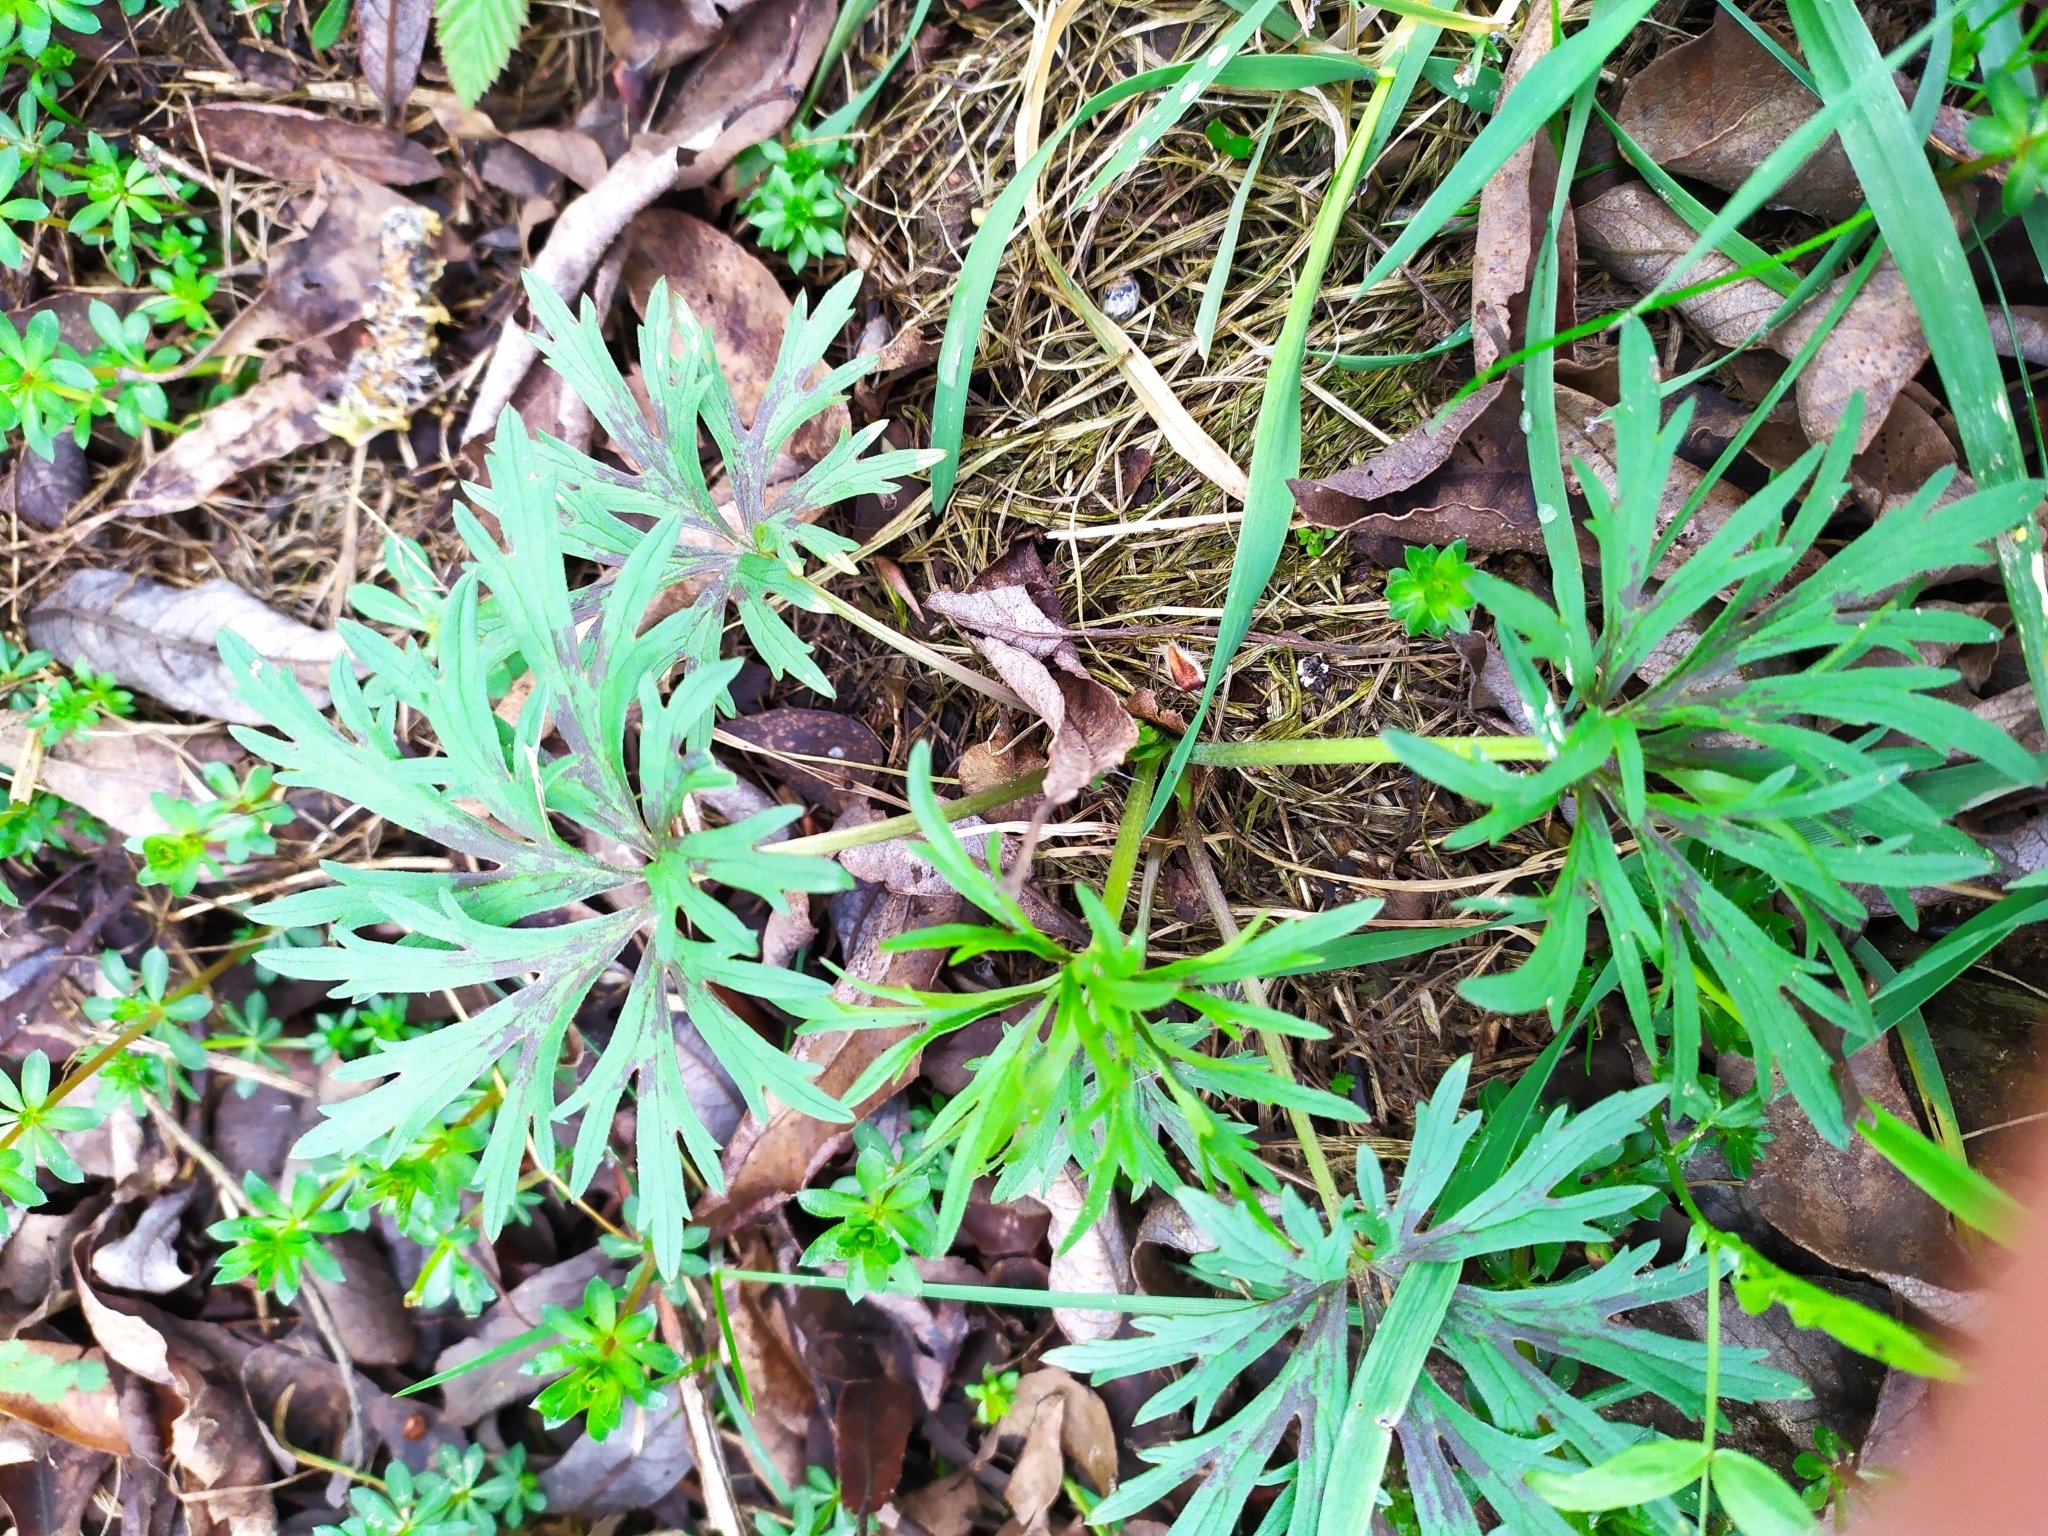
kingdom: Plantae
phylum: Tracheophyta
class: Magnoliopsida
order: Ranunculales
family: Ranunculaceae
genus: Ranunculus
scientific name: Ranunculus acris
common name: Meadow buttercup
